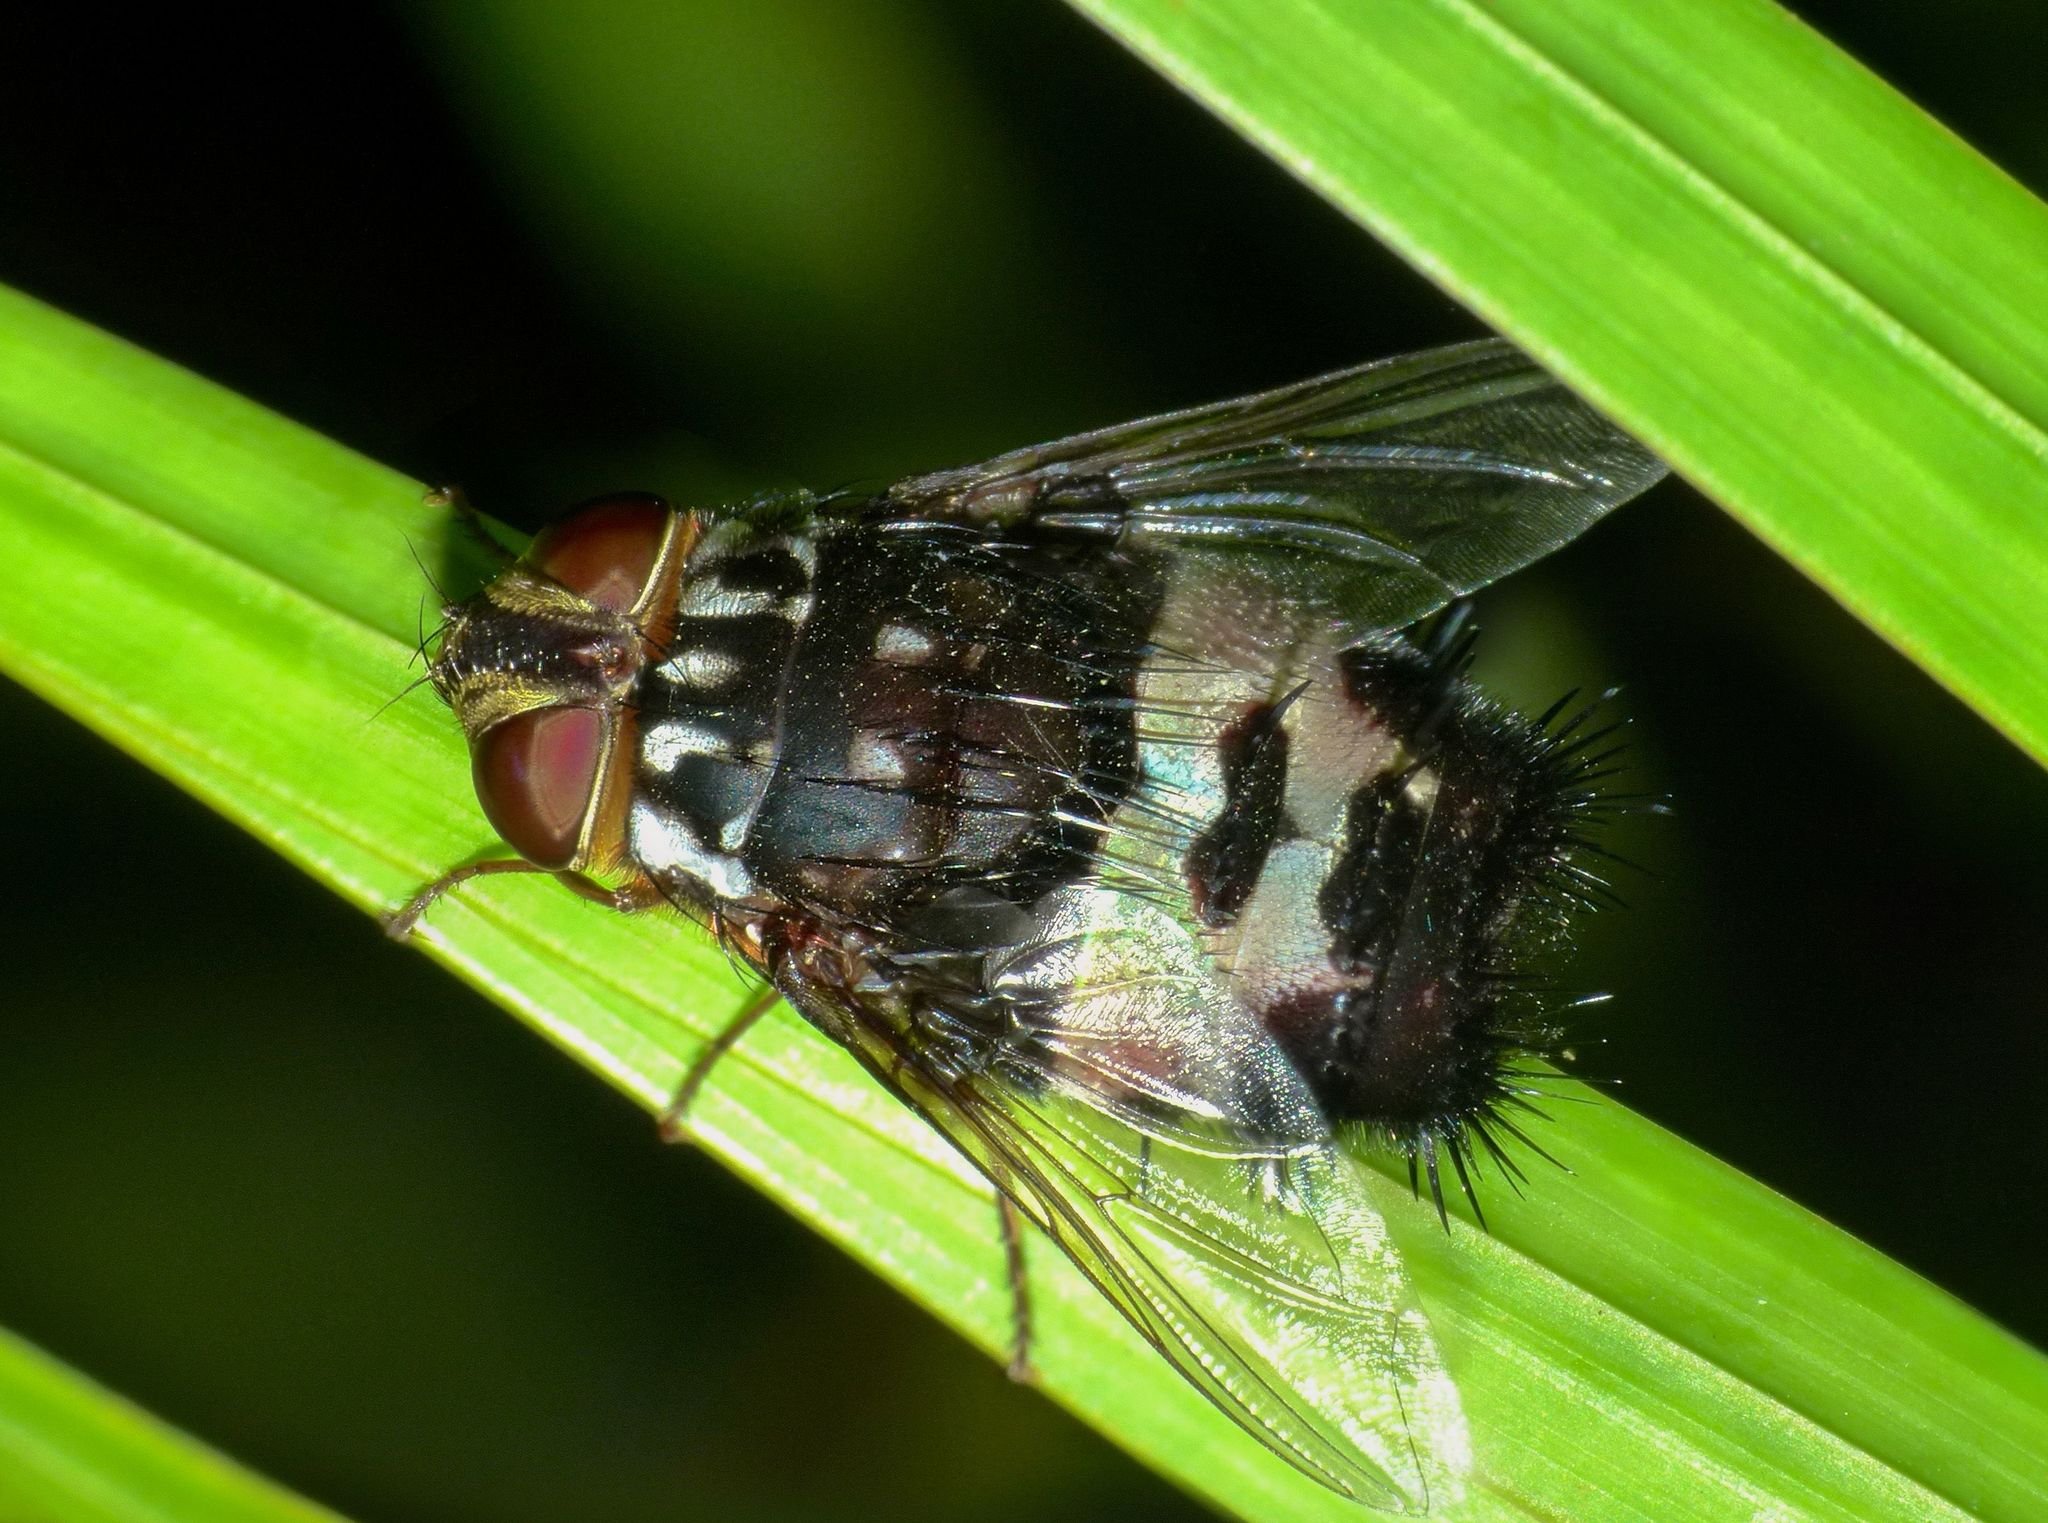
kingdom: Animalia
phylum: Arthropoda
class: Insecta
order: Diptera
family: Tachinidae
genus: Formosia
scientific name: Formosia speciosa
